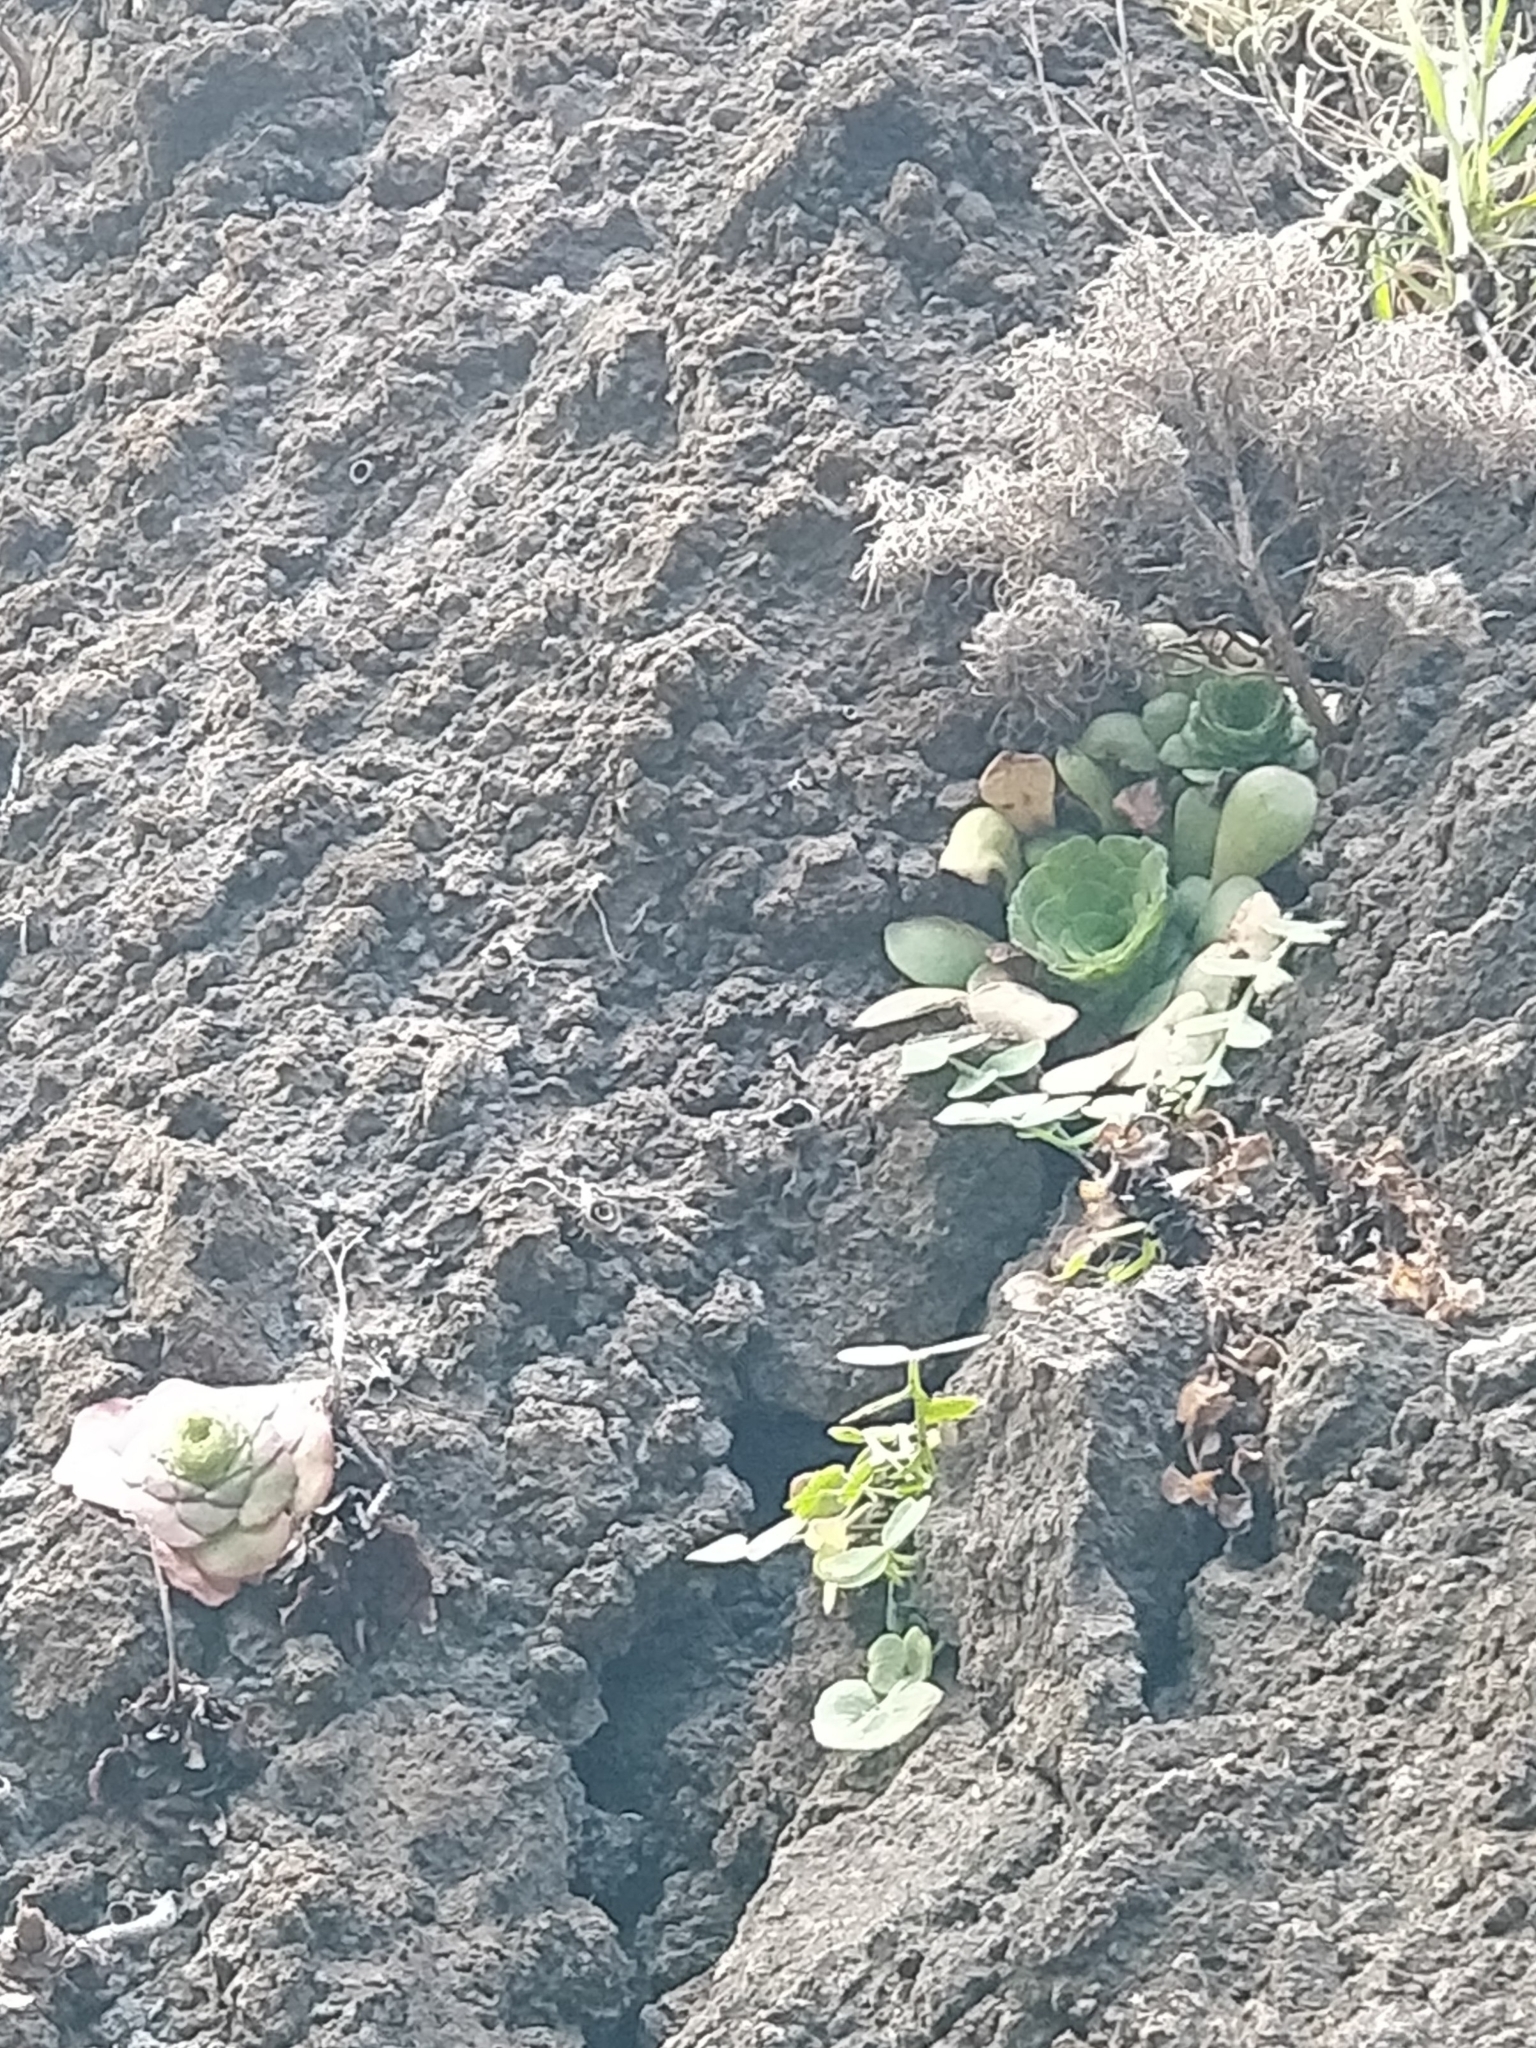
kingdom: Plantae
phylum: Tracheophyta
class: Magnoliopsida
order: Saxifragales
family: Crassulaceae
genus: Aeonium
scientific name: Aeonium glandulosum
